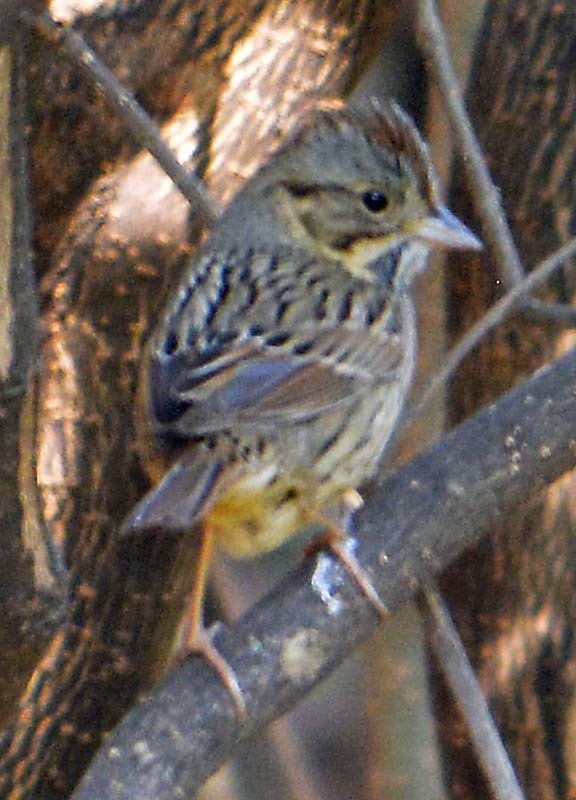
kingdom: Animalia
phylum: Chordata
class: Aves
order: Passeriformes
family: Passerellidae
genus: Melospiza
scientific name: Melospiza lincolnii
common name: Lincoln's sparrow
